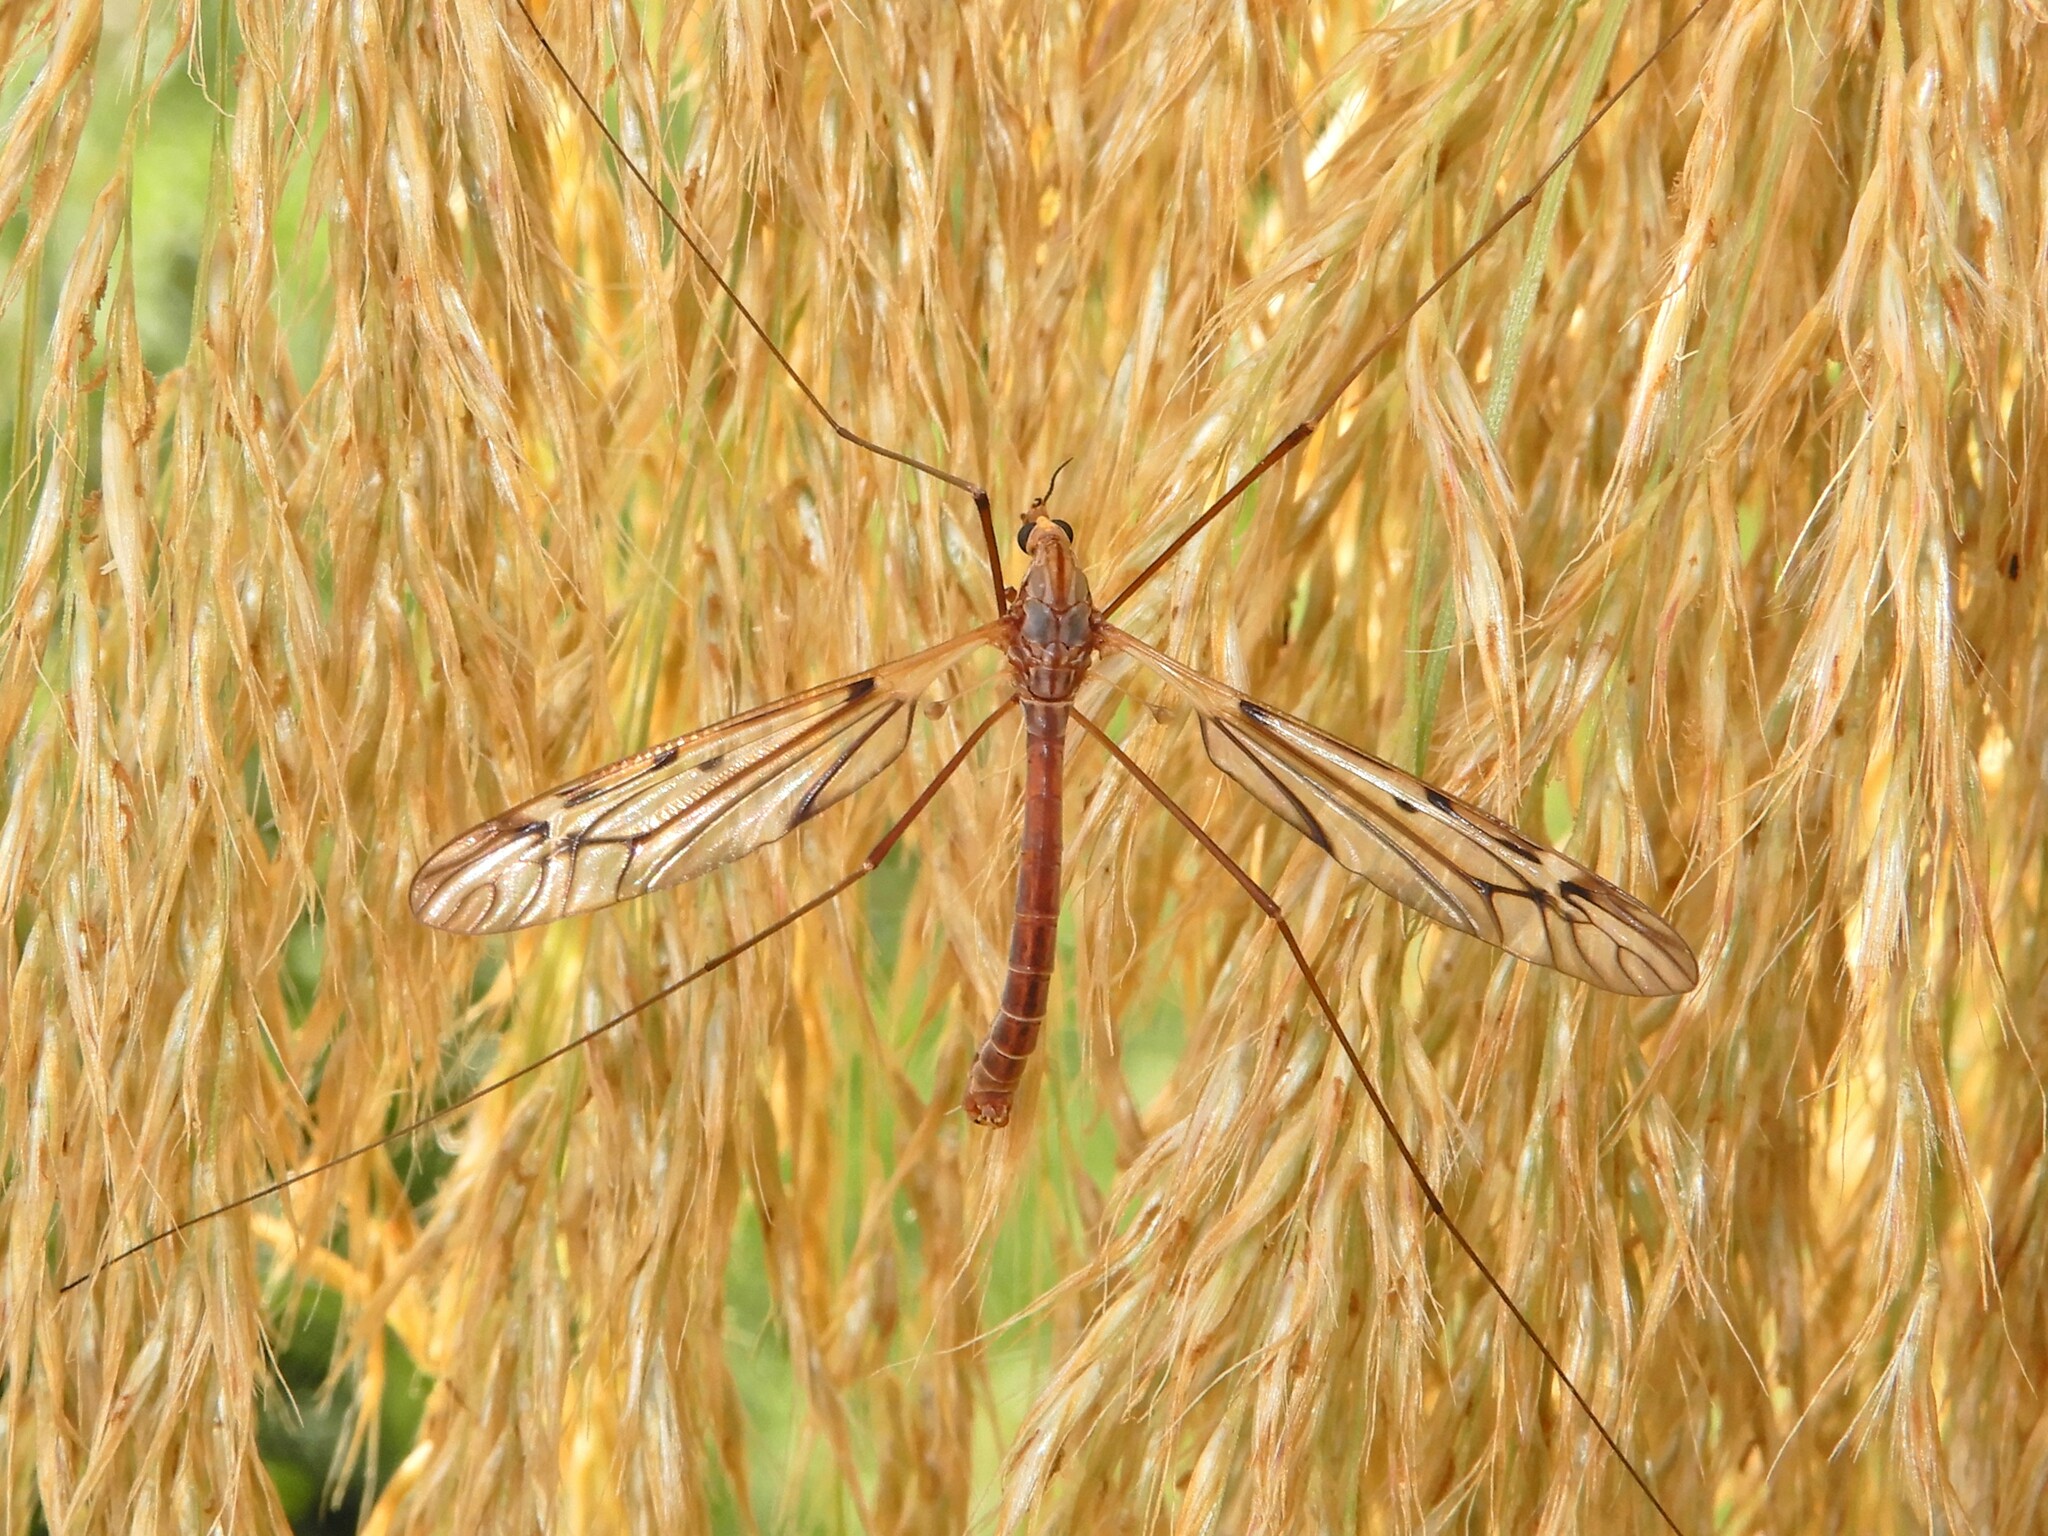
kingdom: Animalia
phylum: Arthropoda
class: Insecta
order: Diptera
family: Tipulidae
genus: Zelandotipula
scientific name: Zelandotipula novarae
